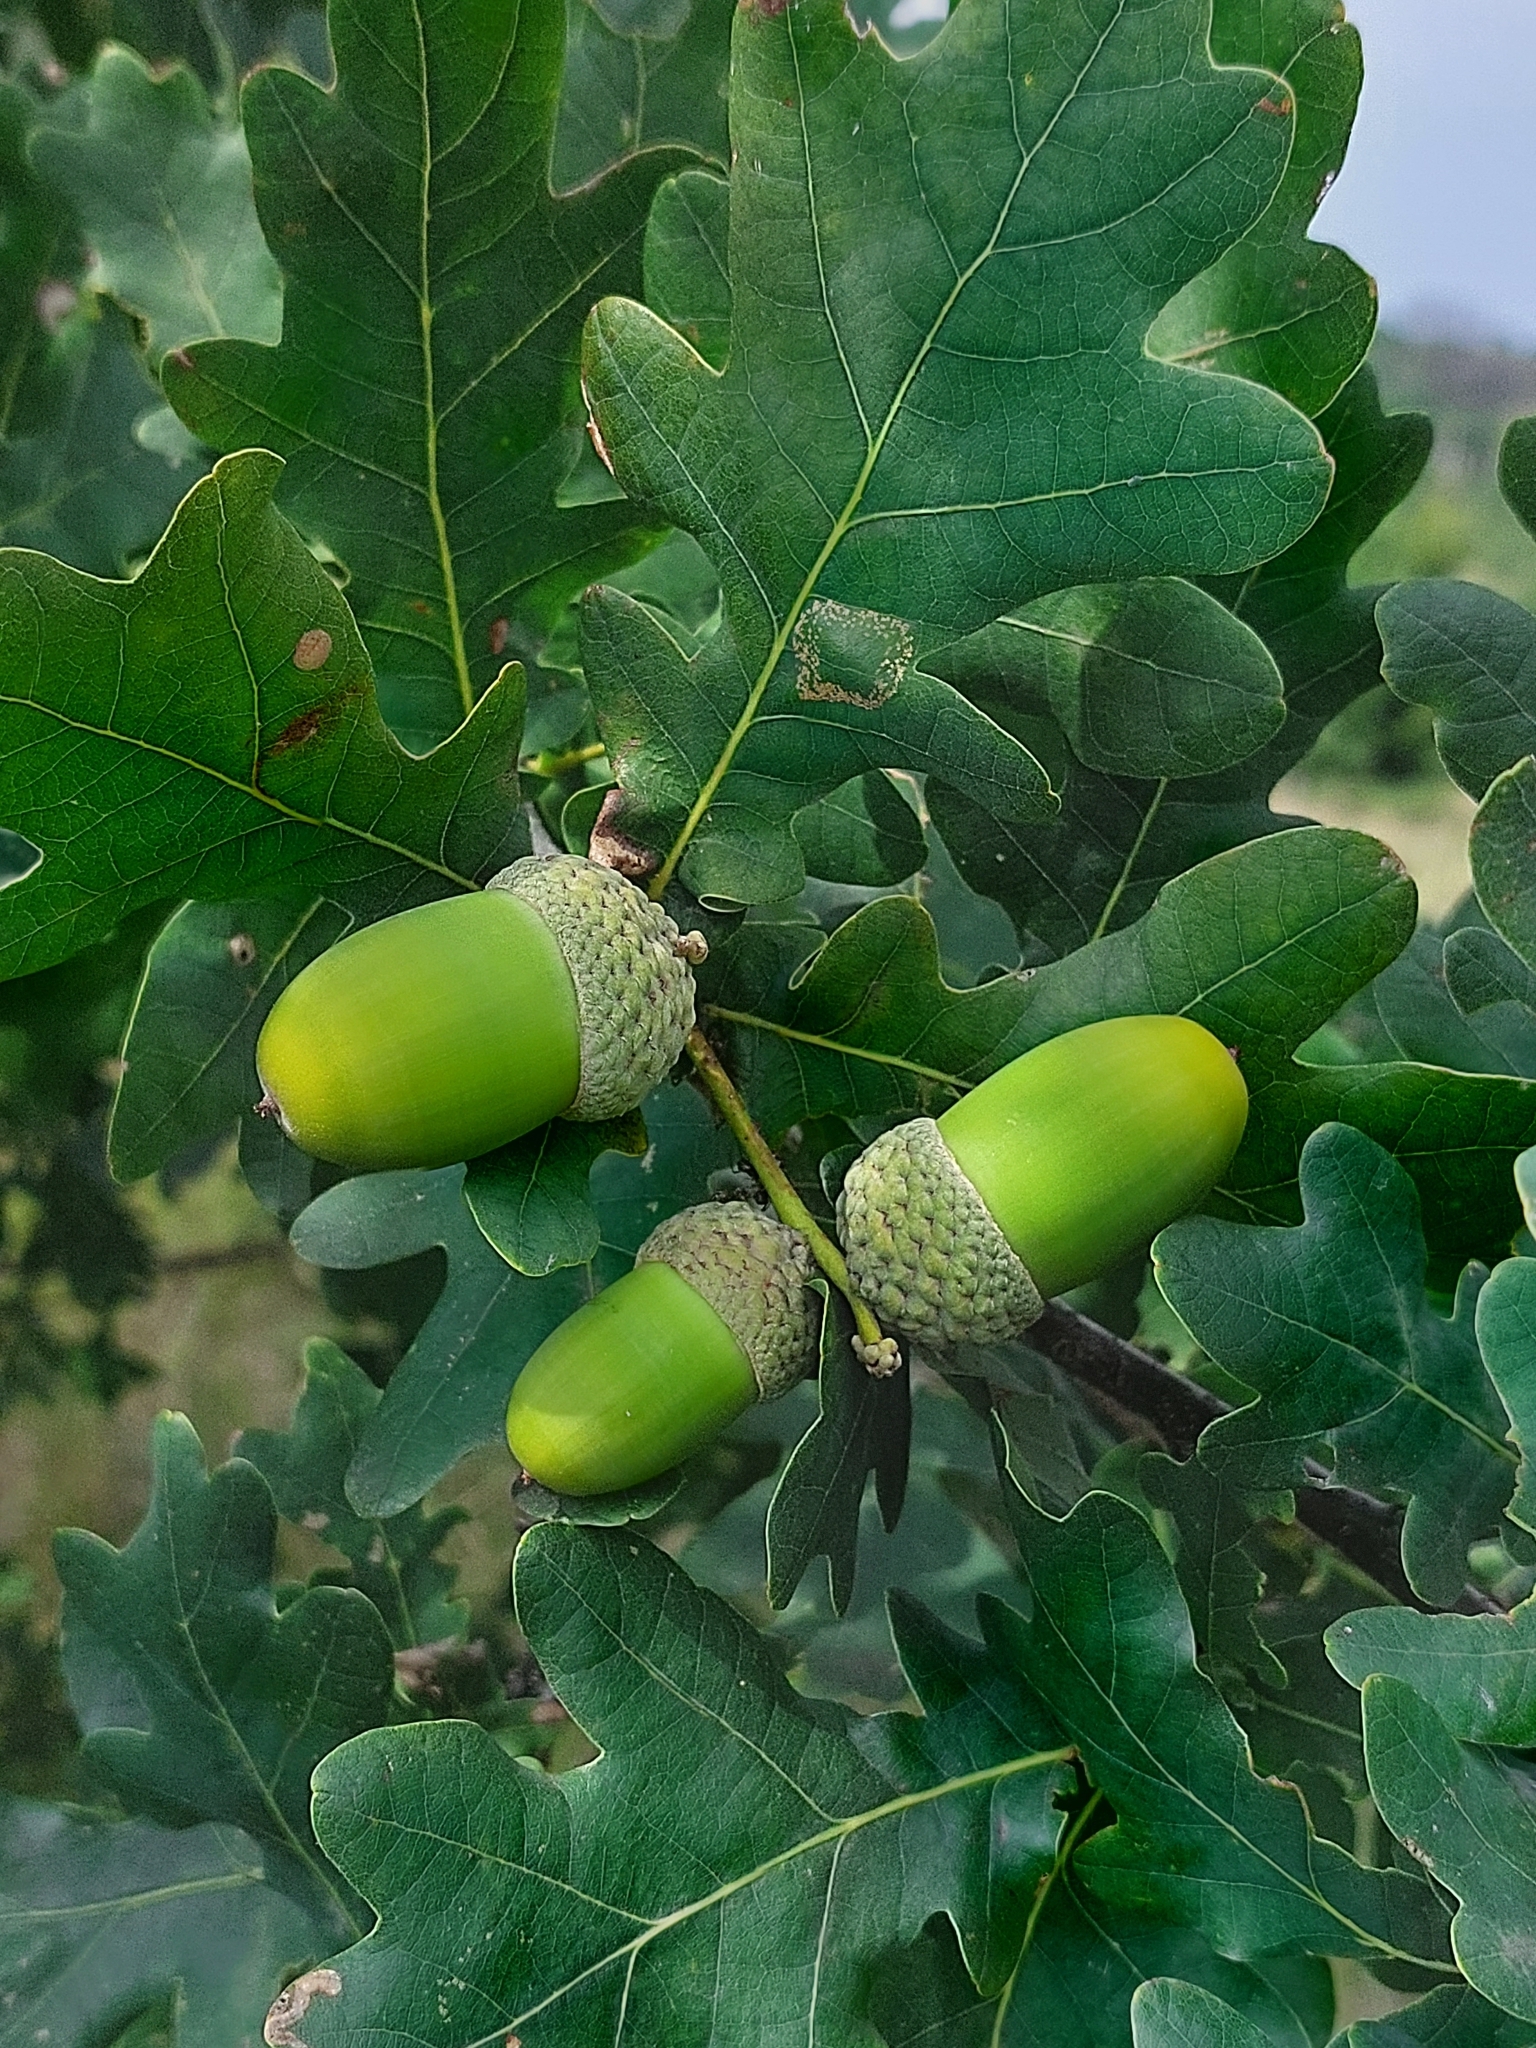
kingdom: Plantae
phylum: Tracheophyta
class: Magnoliopsida
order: Fagales
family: Fagaceae
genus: Quercus
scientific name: Quercus robur
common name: Pedunculate oak
